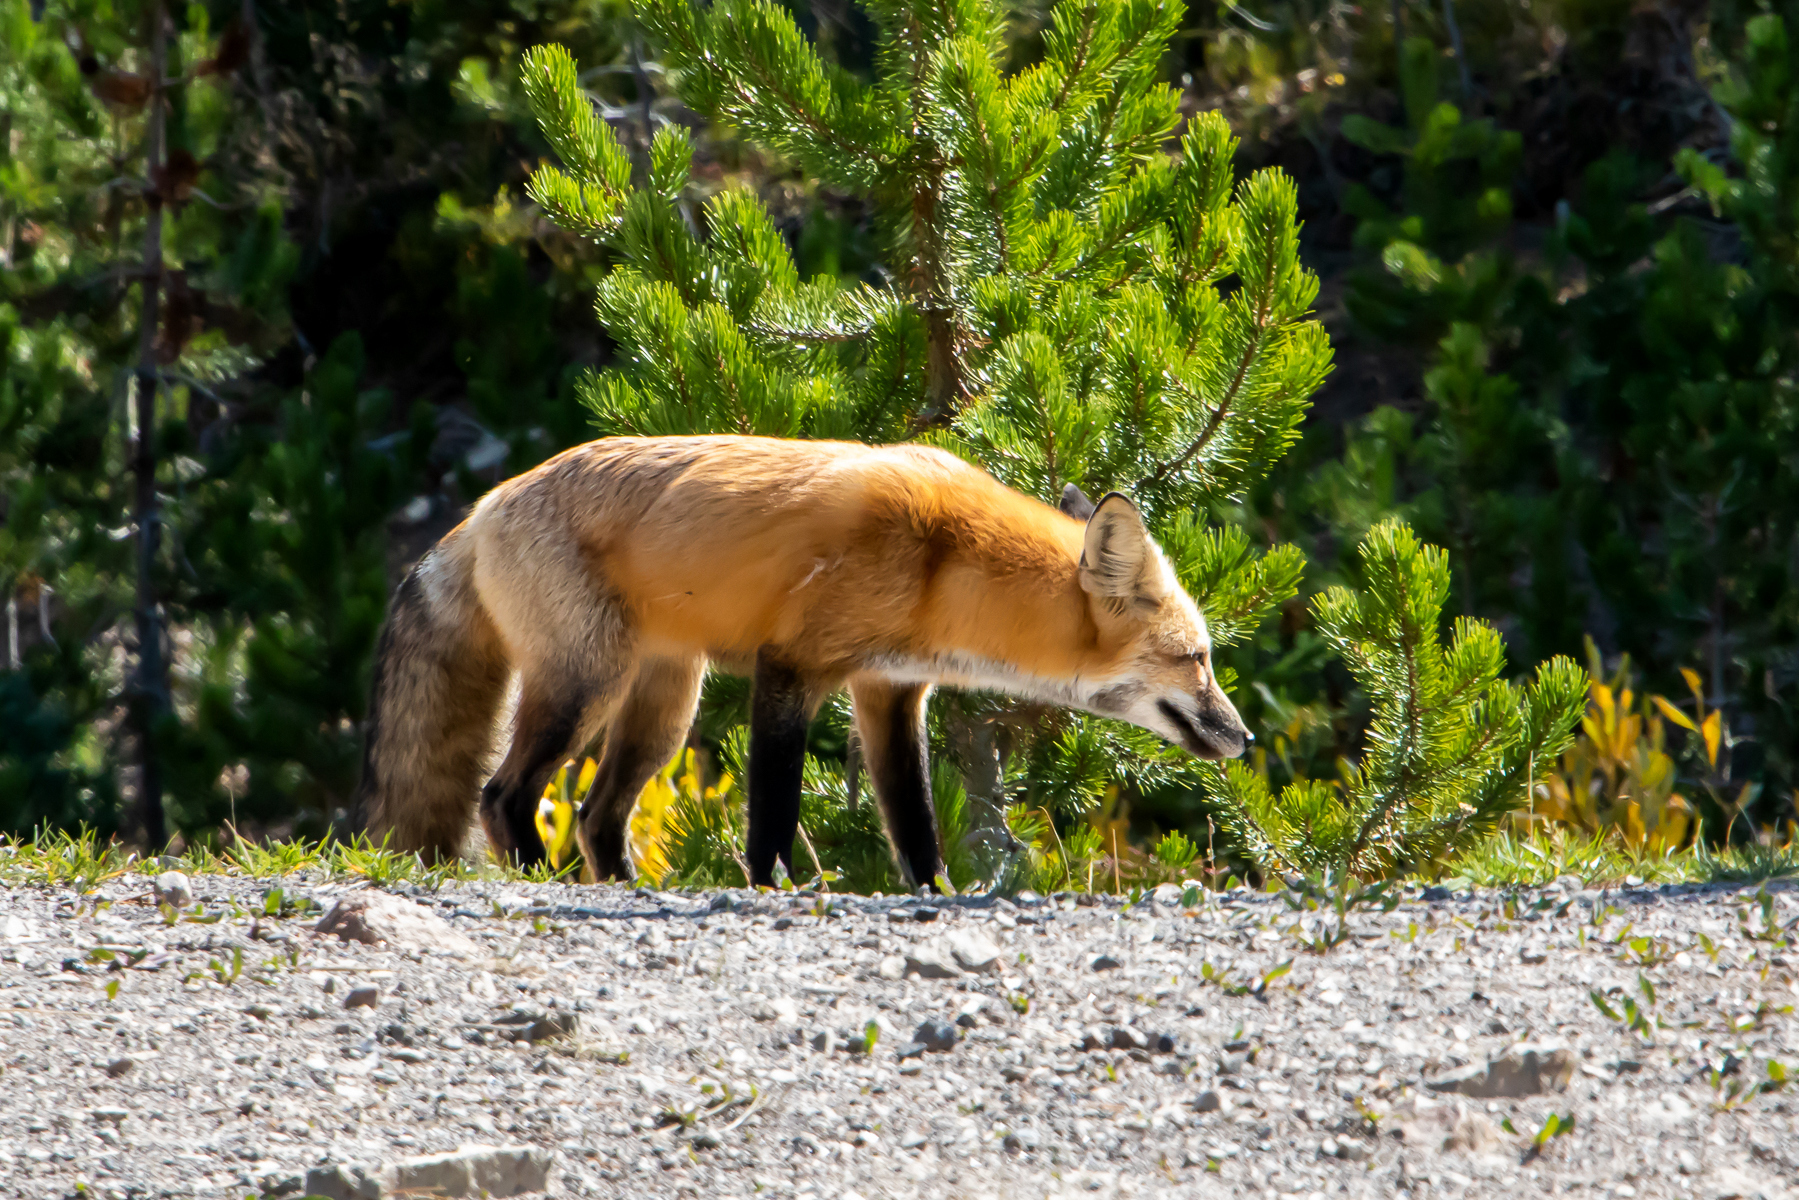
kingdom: Animalia
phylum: Chordata
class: Mammalia
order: Carnivora
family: Canidae
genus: Vulpes
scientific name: Vulpes vulpes
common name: Red fox
